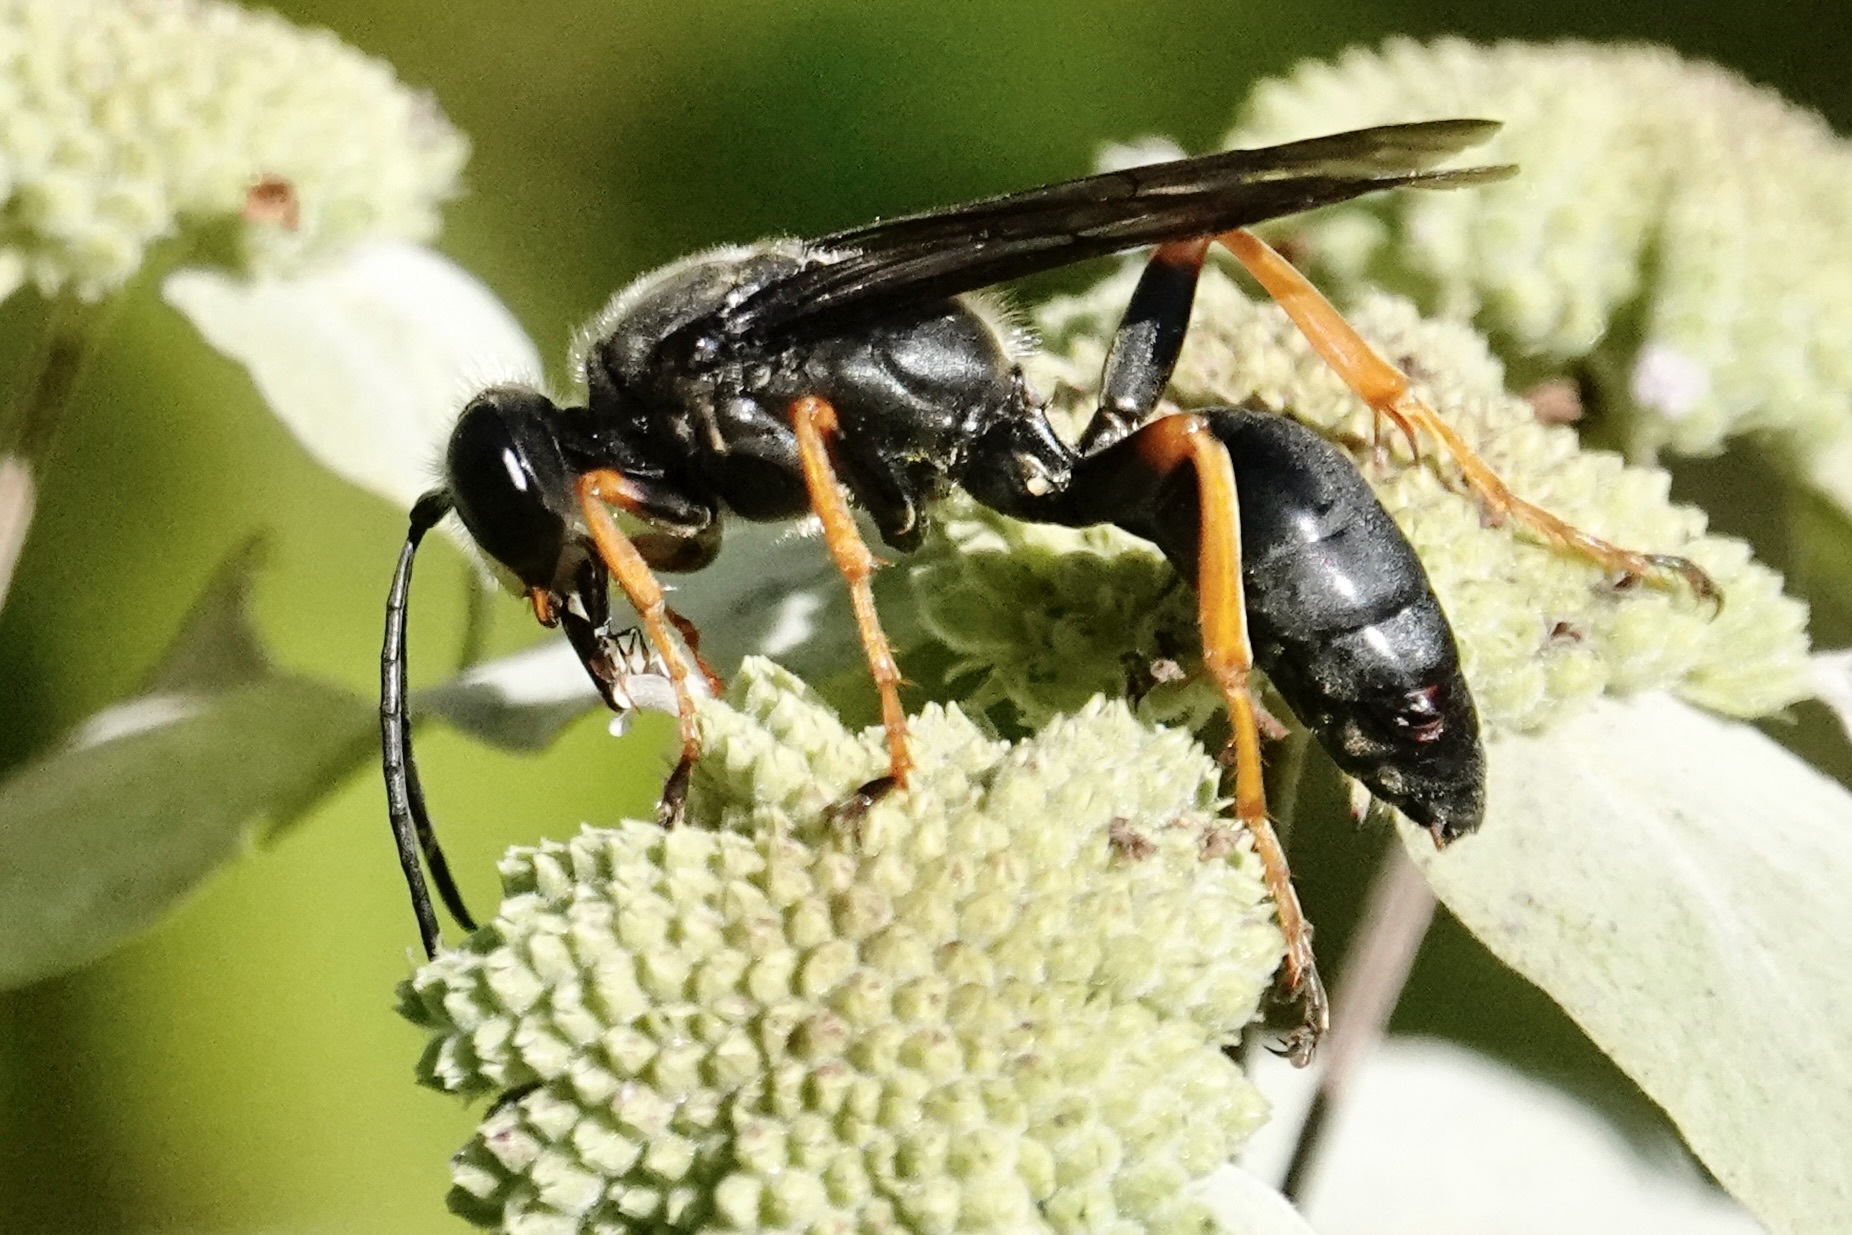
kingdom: Animalia
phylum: Arthropoda
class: Insecta
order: Strepsiptera
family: Xenidae
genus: Paraxenos
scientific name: Paraxenos Eupathocera westwoodii
